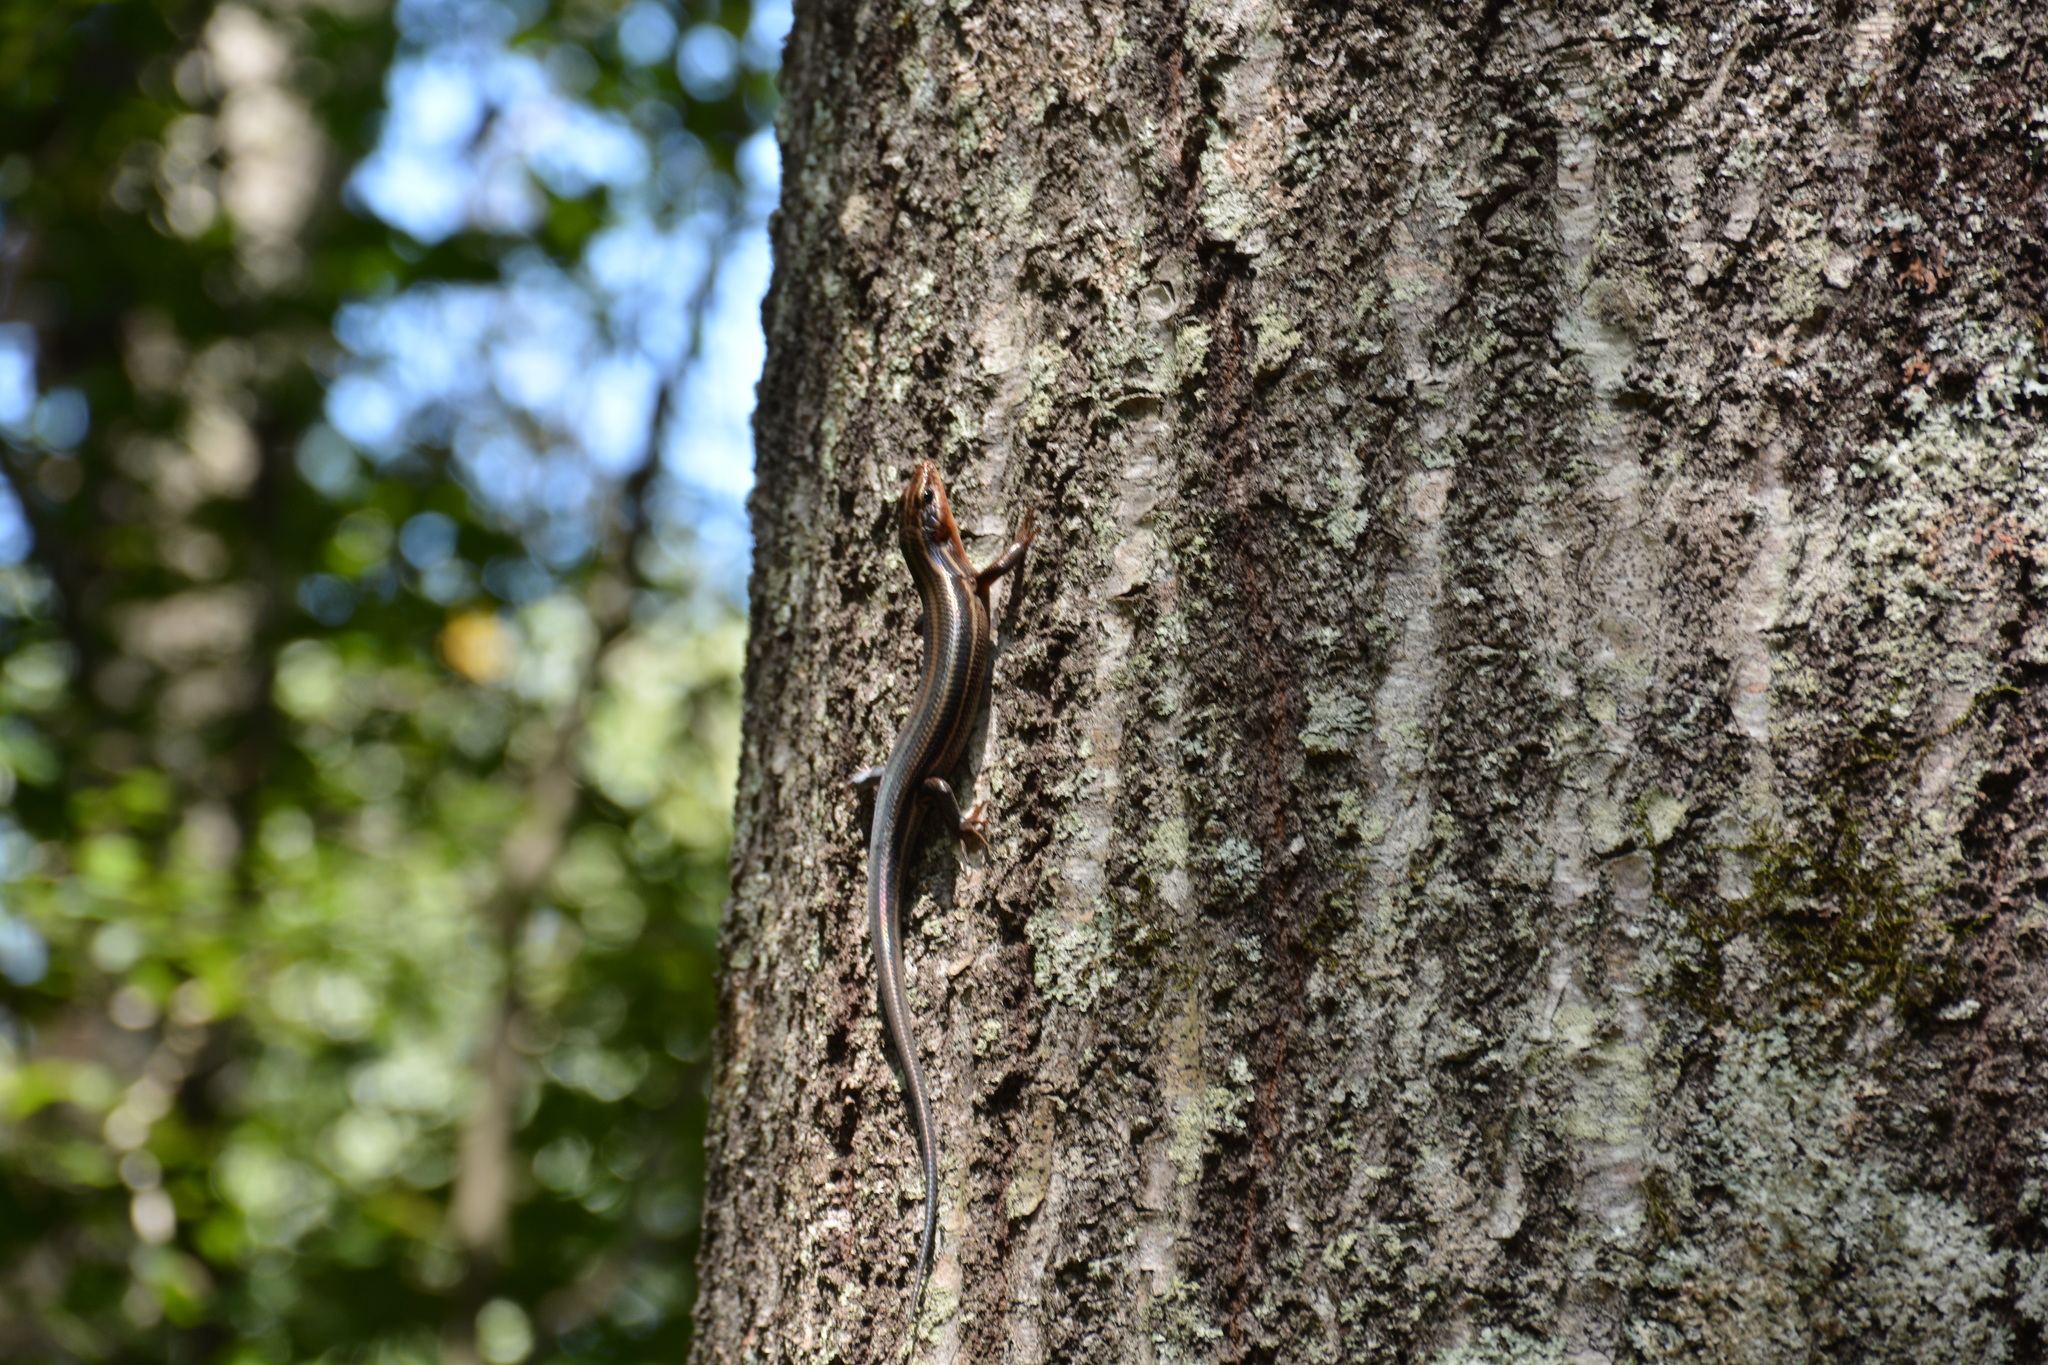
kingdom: Animalia
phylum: Chordata
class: Squamata
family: Scincidae
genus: Plestiodon
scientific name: Plestiodon fasciatus
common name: Five-lined skink
